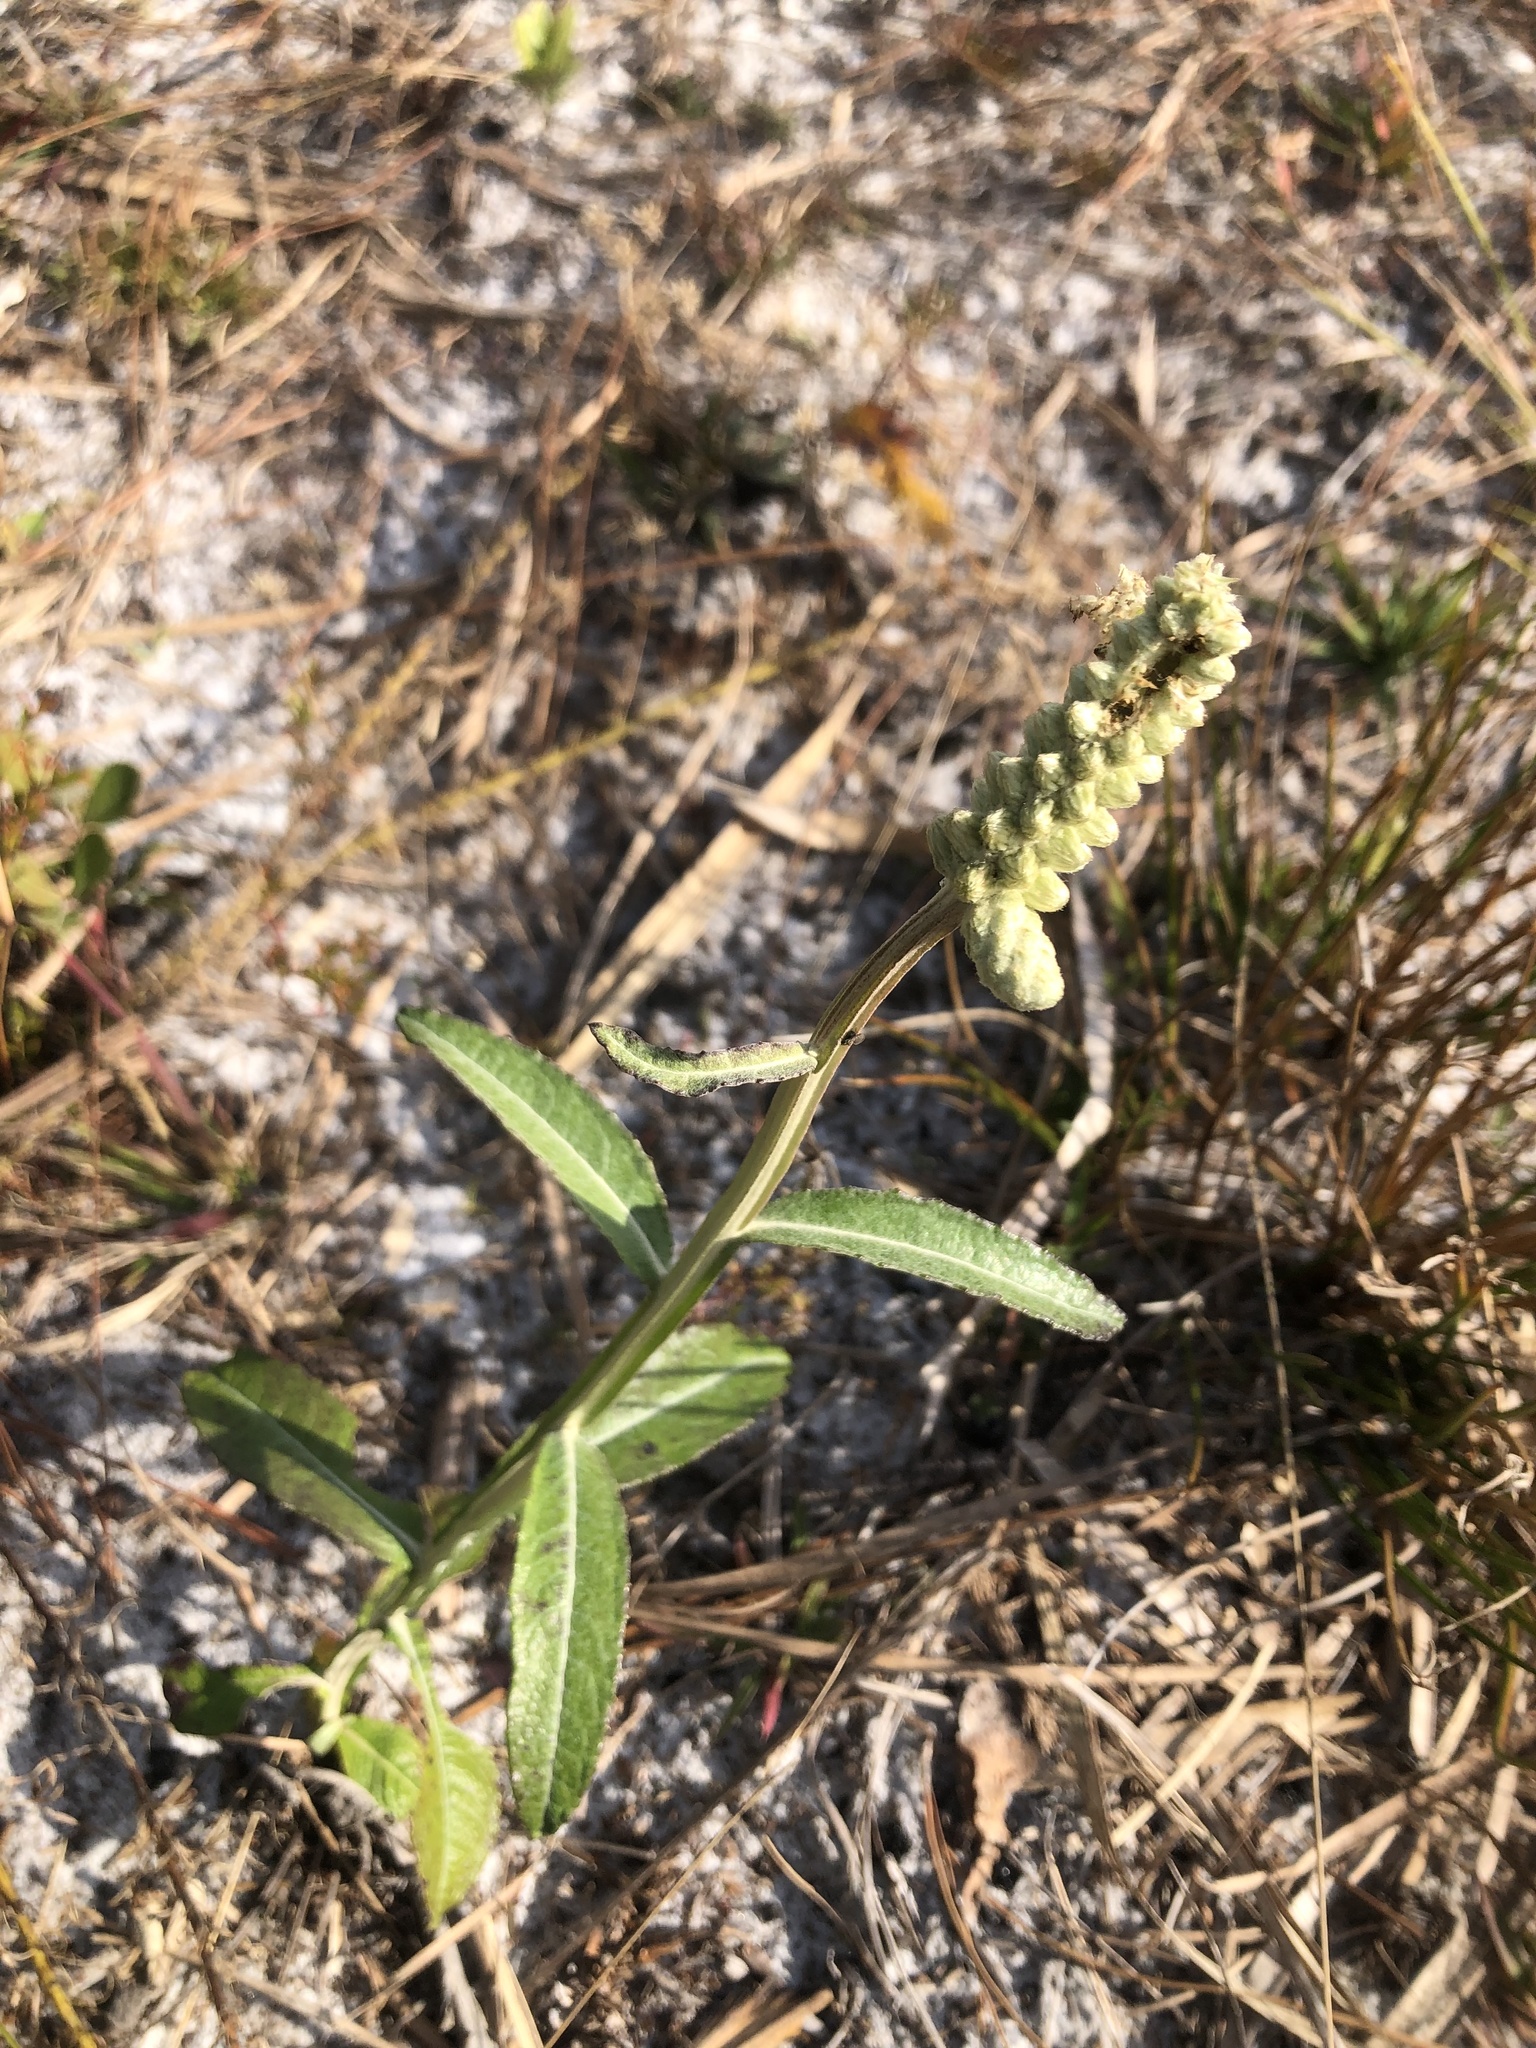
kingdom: Plantae
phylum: Tracheophyta
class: Magnoliopsida
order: Asterales
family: Asteraceae
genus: Pterocaulon
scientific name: Pterocaulon pycnostachyum
